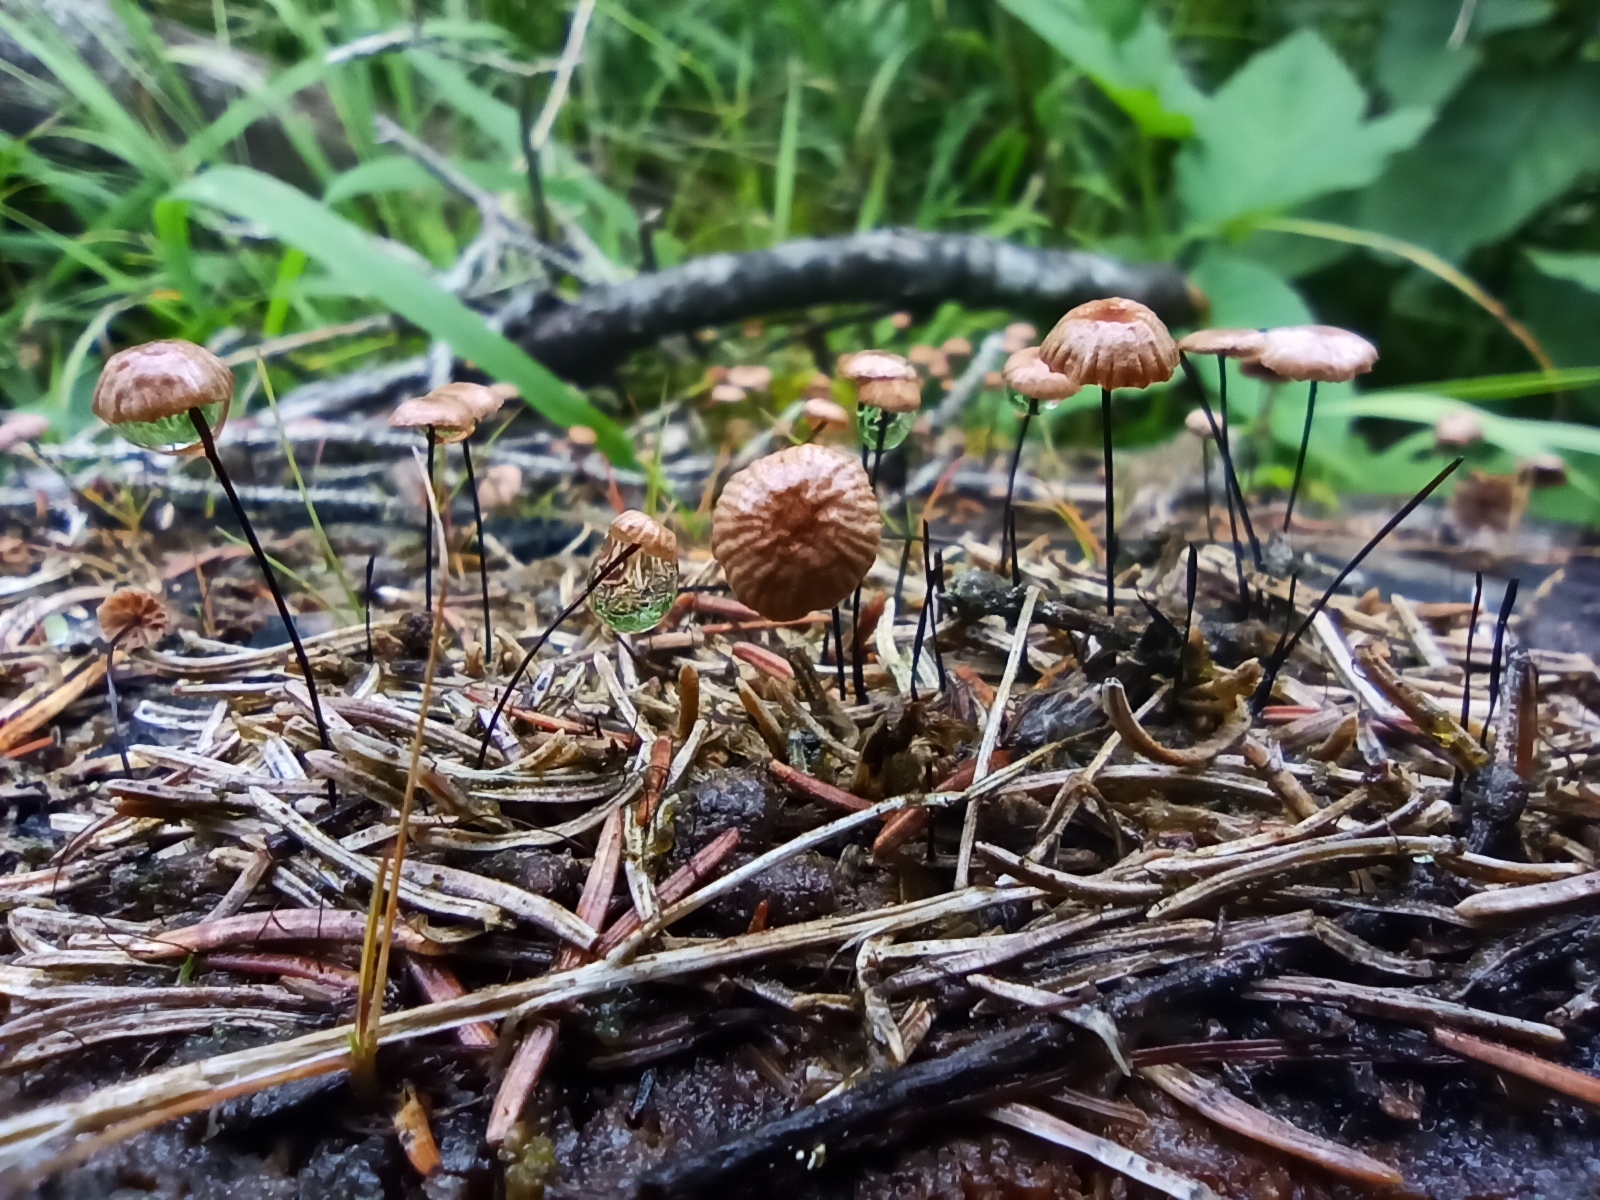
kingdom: Fungi
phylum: Basidiomycota
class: Agaricomycetes
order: Agaricales
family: Omphalotaceae
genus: Gymnopus
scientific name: Gymnopus androsaceus
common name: Horse-hair fungus
